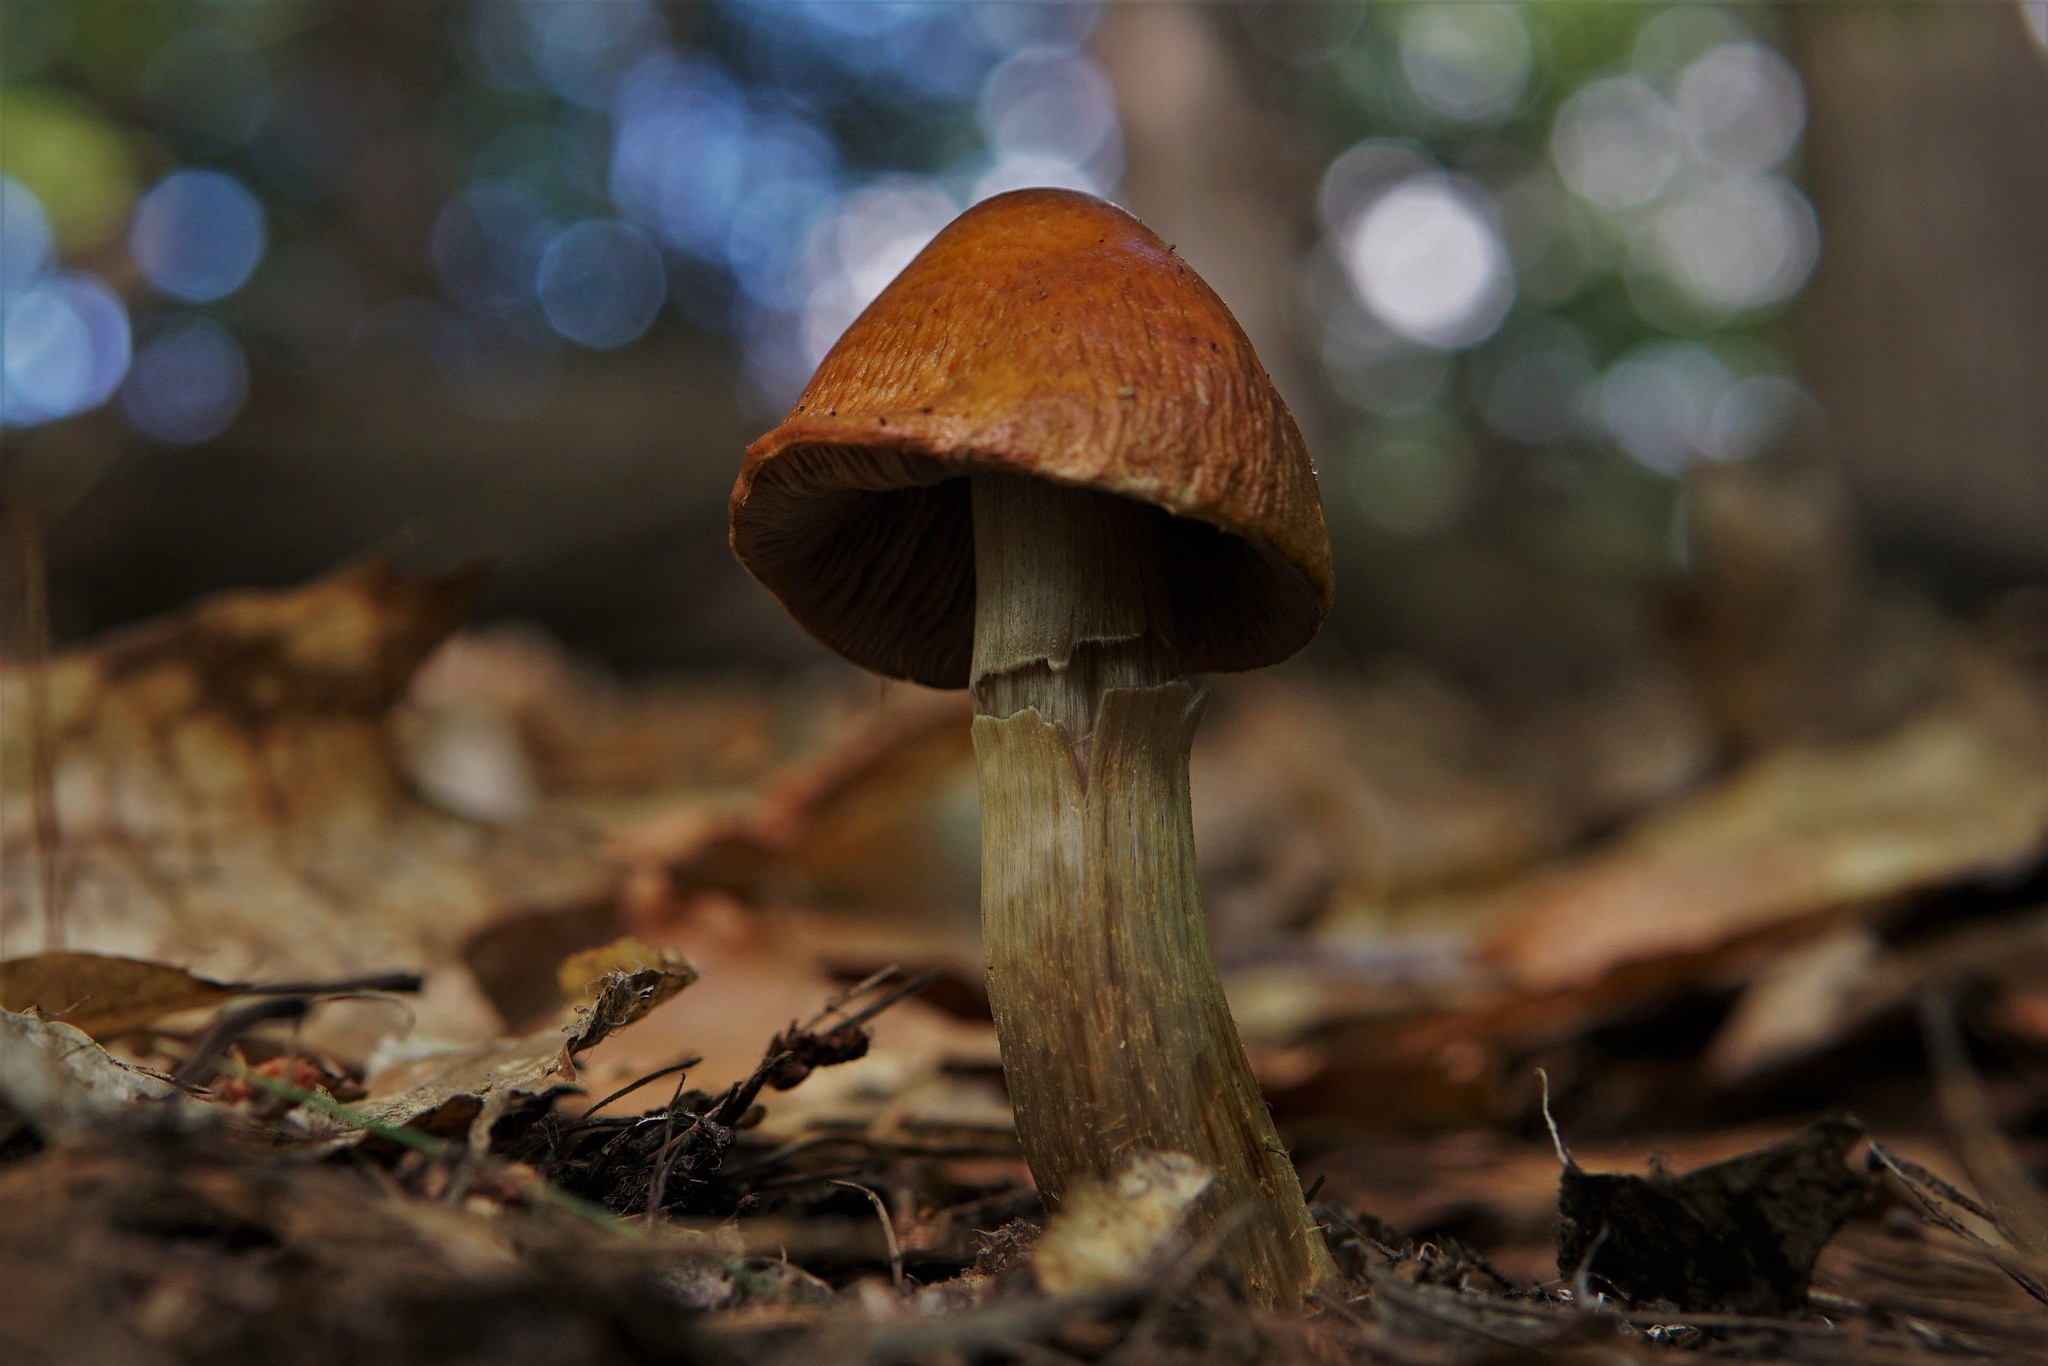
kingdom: Fungi
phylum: Basidiomycota
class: Agaricomycetes
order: Agaricales
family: Cortinariaceae
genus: Cortinarius
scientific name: Cortinarius corrugatus
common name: Wrinkled cortinarius
